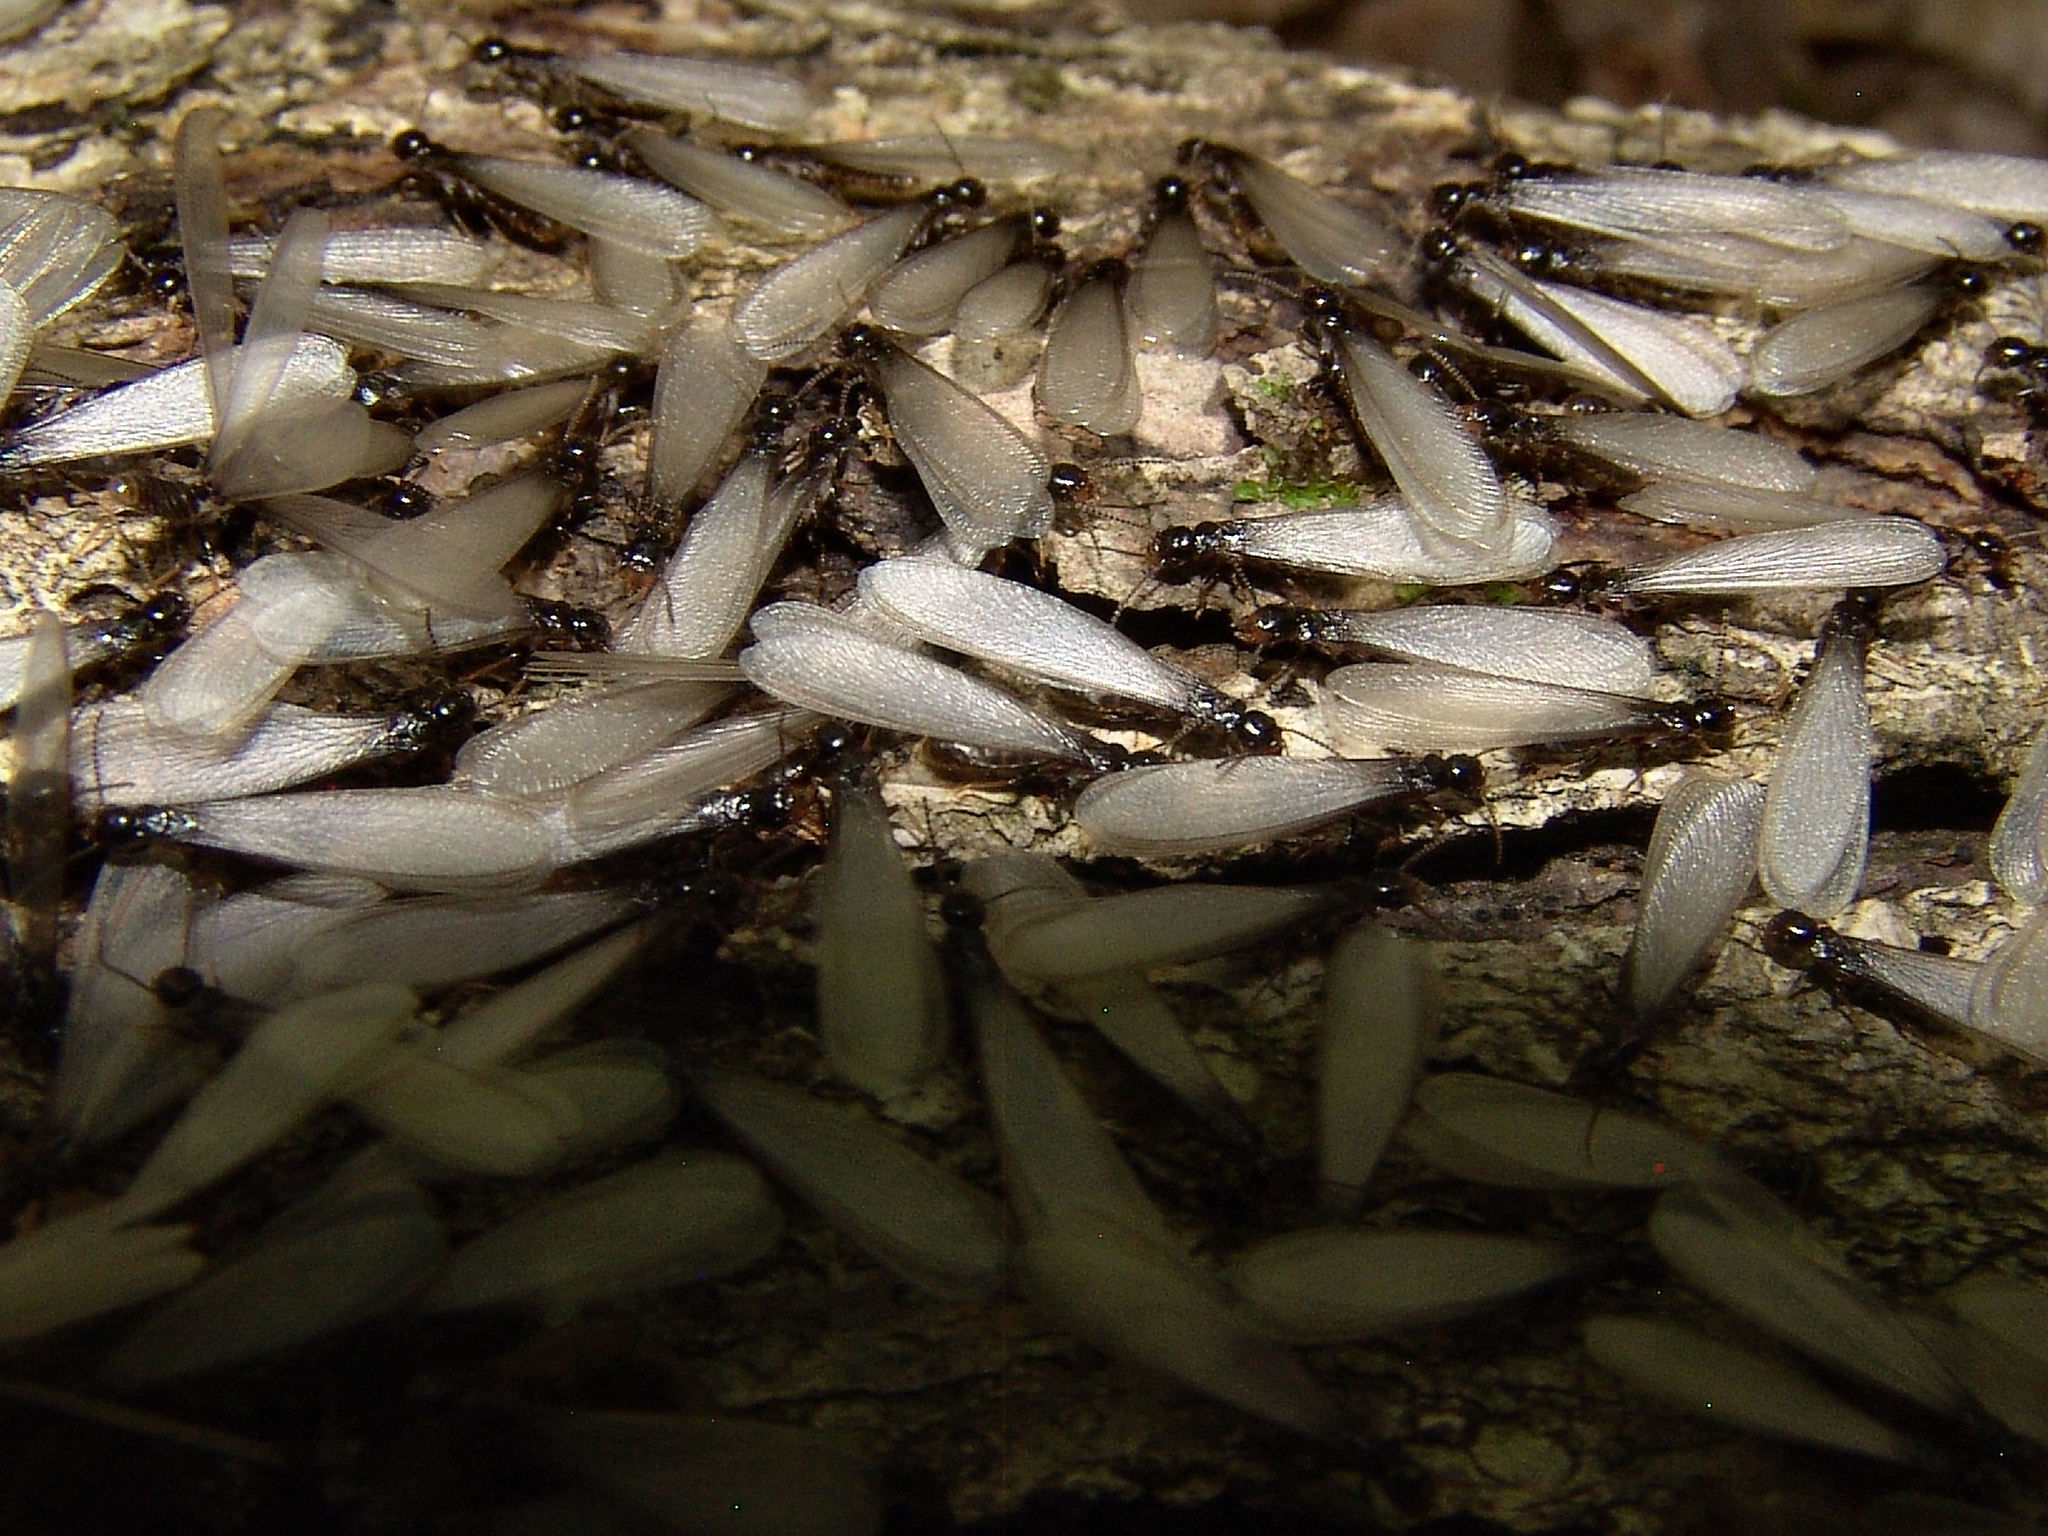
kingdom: Animalia
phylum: Arthropoda
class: Insecta
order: Blattodea
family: Rhinotermitidae
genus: Reticulitermes
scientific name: Reticulitermes flavipes
